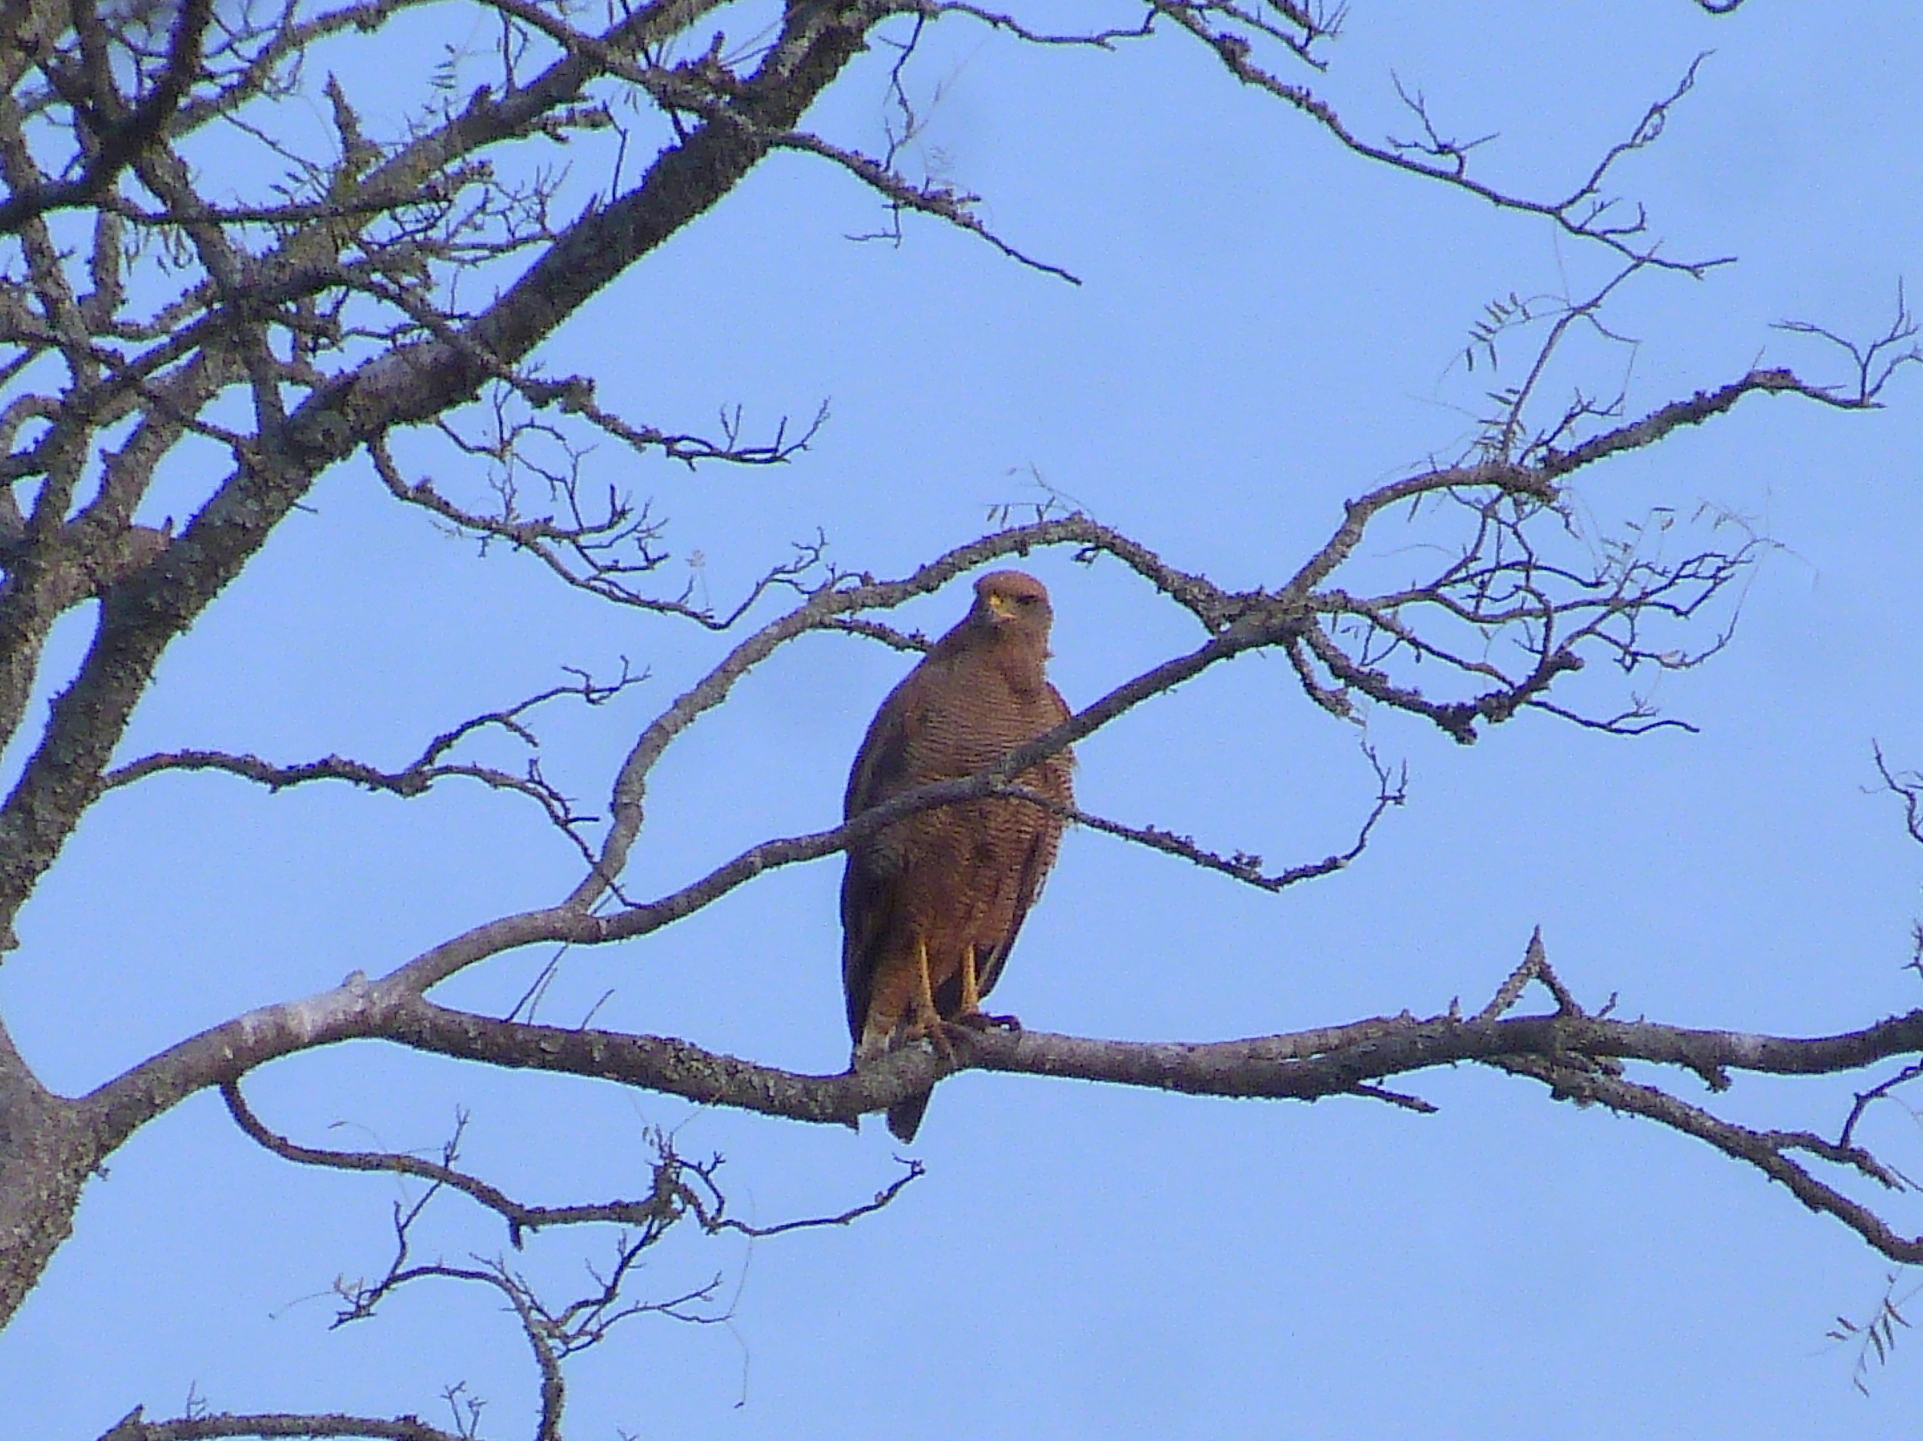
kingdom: Animalia
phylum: Chordata
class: Aves
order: Accipitriformes
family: Accipitridae
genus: Buteogallus
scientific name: Buteogallus meridionalis
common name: Savanna hawk
